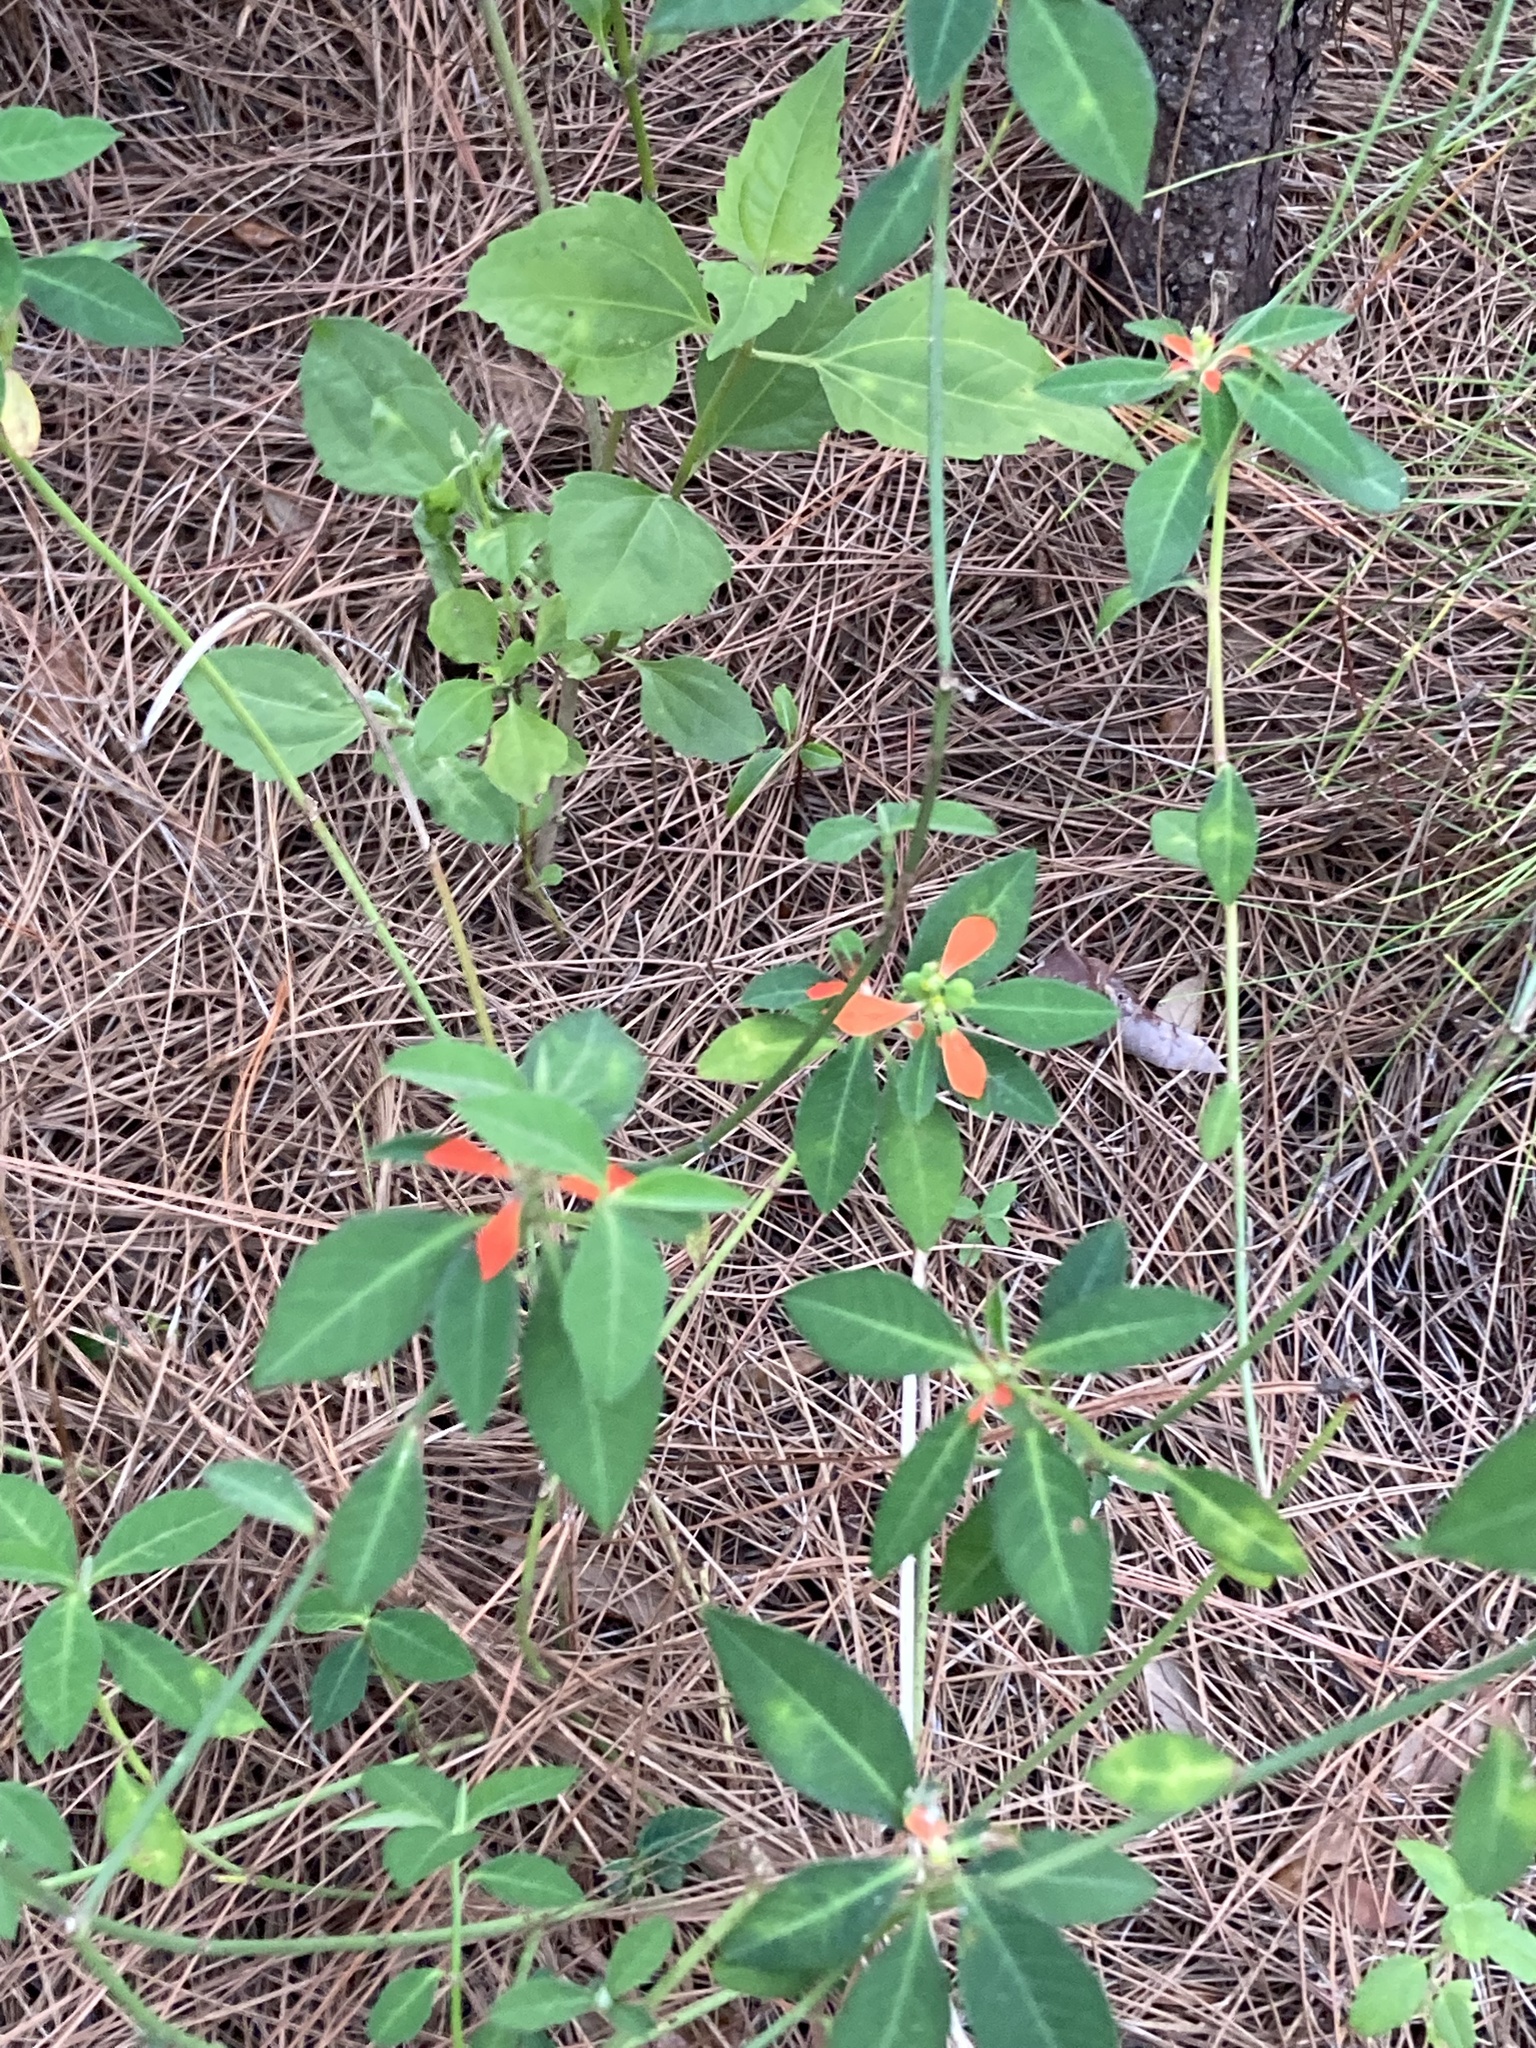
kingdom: Plantae
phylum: Tracheophyta
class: Magnoliopsida
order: Malpighiales
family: Euphorbiaceae
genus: Euphorbia
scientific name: Euphorbia heterophylla
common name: Mexican fireplant
